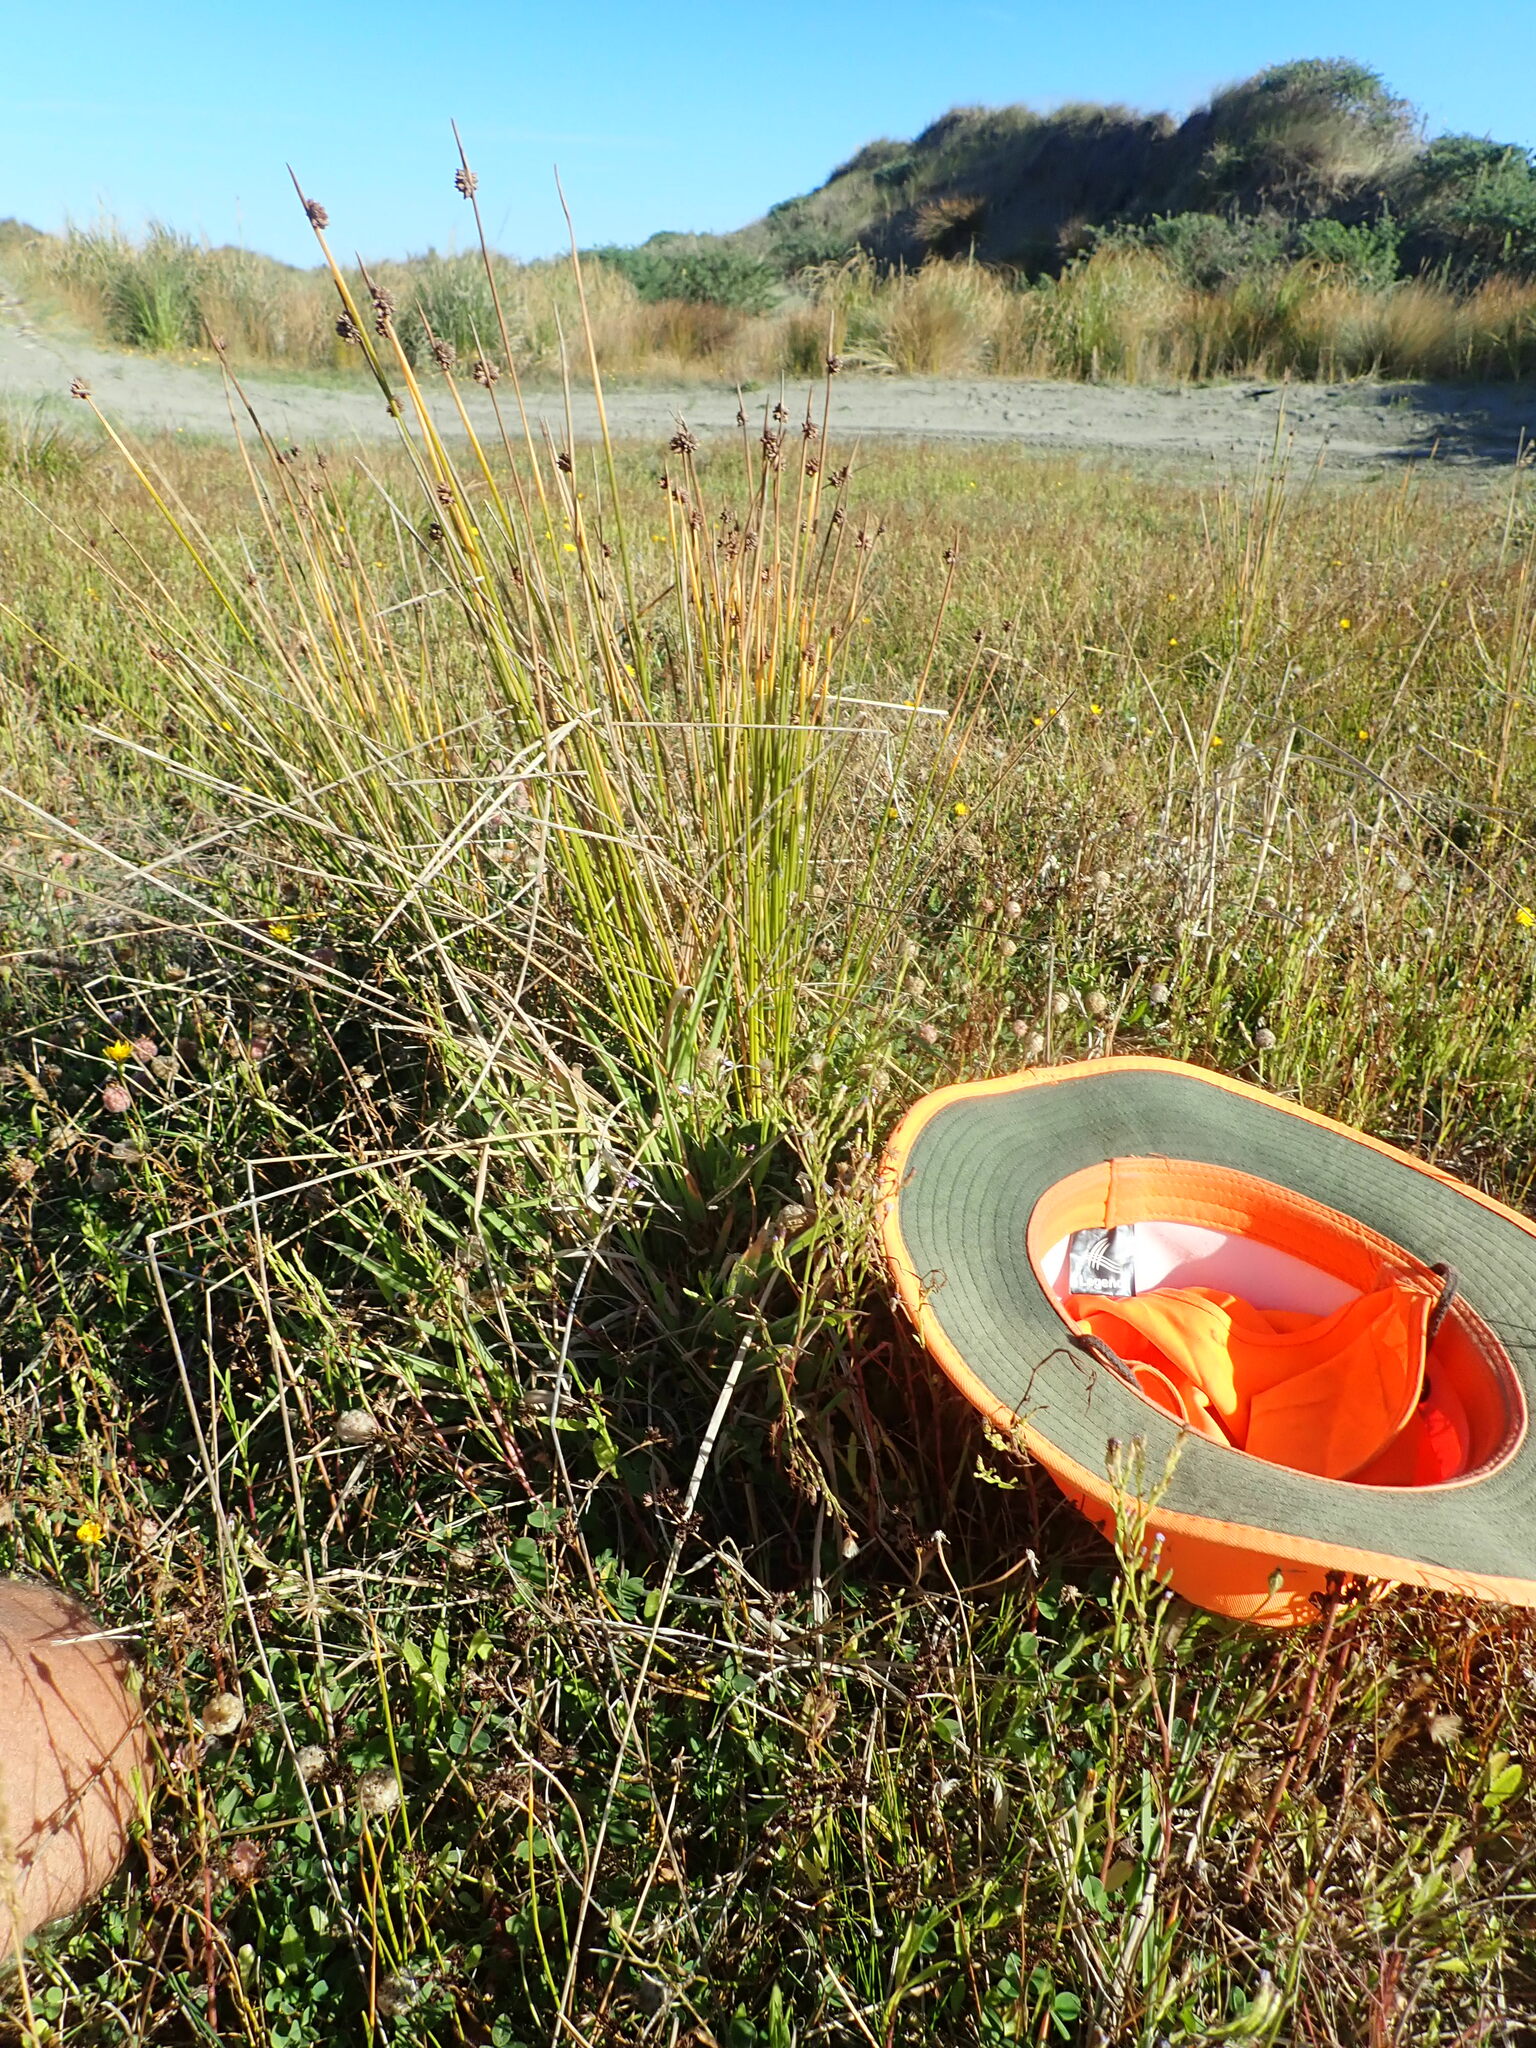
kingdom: Plantae
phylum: Tracheophyta
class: Magnoliopsida
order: Asterales
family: Campanulaceae
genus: Lobelia
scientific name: Lobelia anceps
